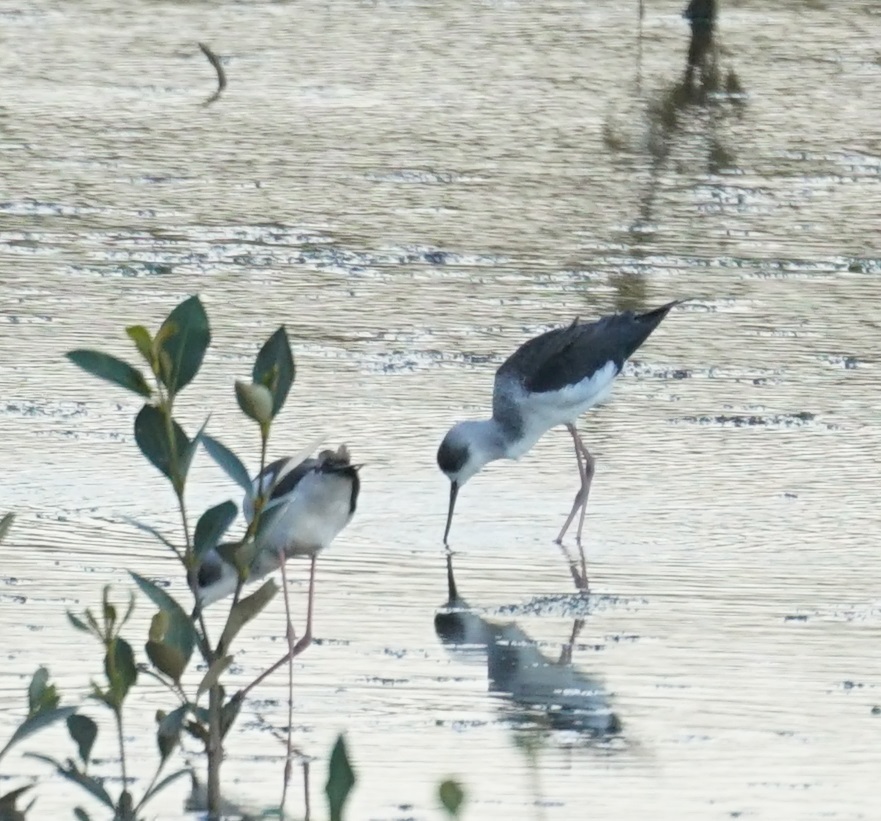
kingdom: Animalia
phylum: Chordata
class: Aves
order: Charadriiformes
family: Recurvirostridae
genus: Himantopus
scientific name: Himantopus leucocephalus
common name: White-headed stilt
